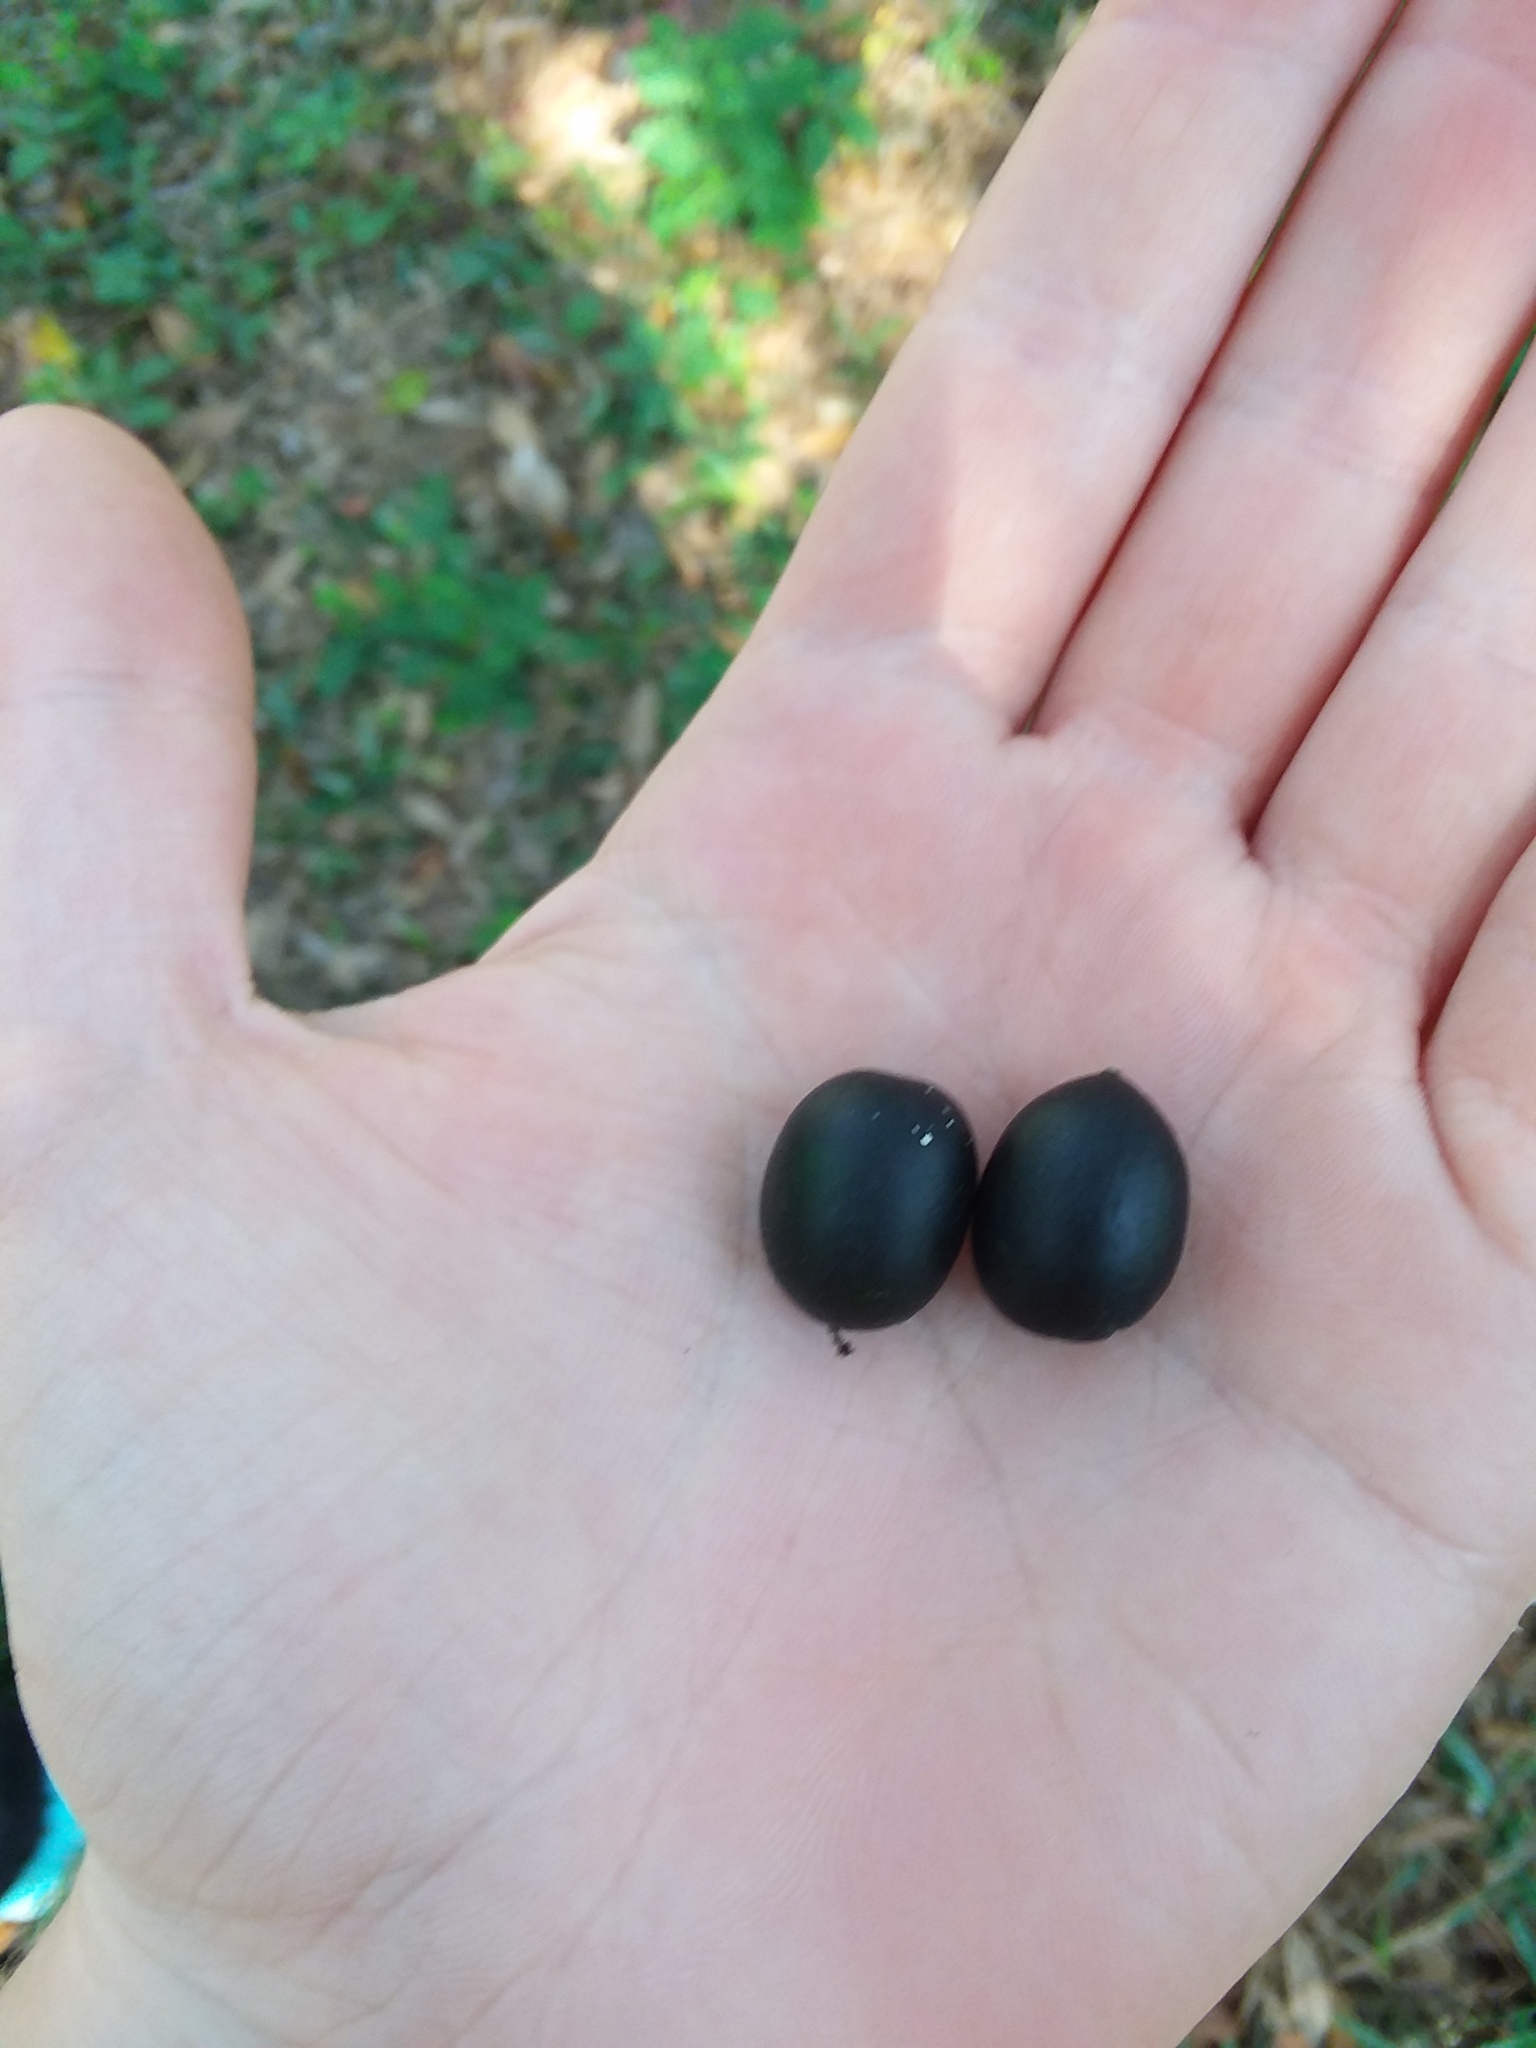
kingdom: Plantae
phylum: Tracheophyta
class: Magnoliopsida
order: Cucurbitales
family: Cucurbitaceae
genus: Melothria
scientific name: Melothria pendula
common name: Creeping-cucumber
